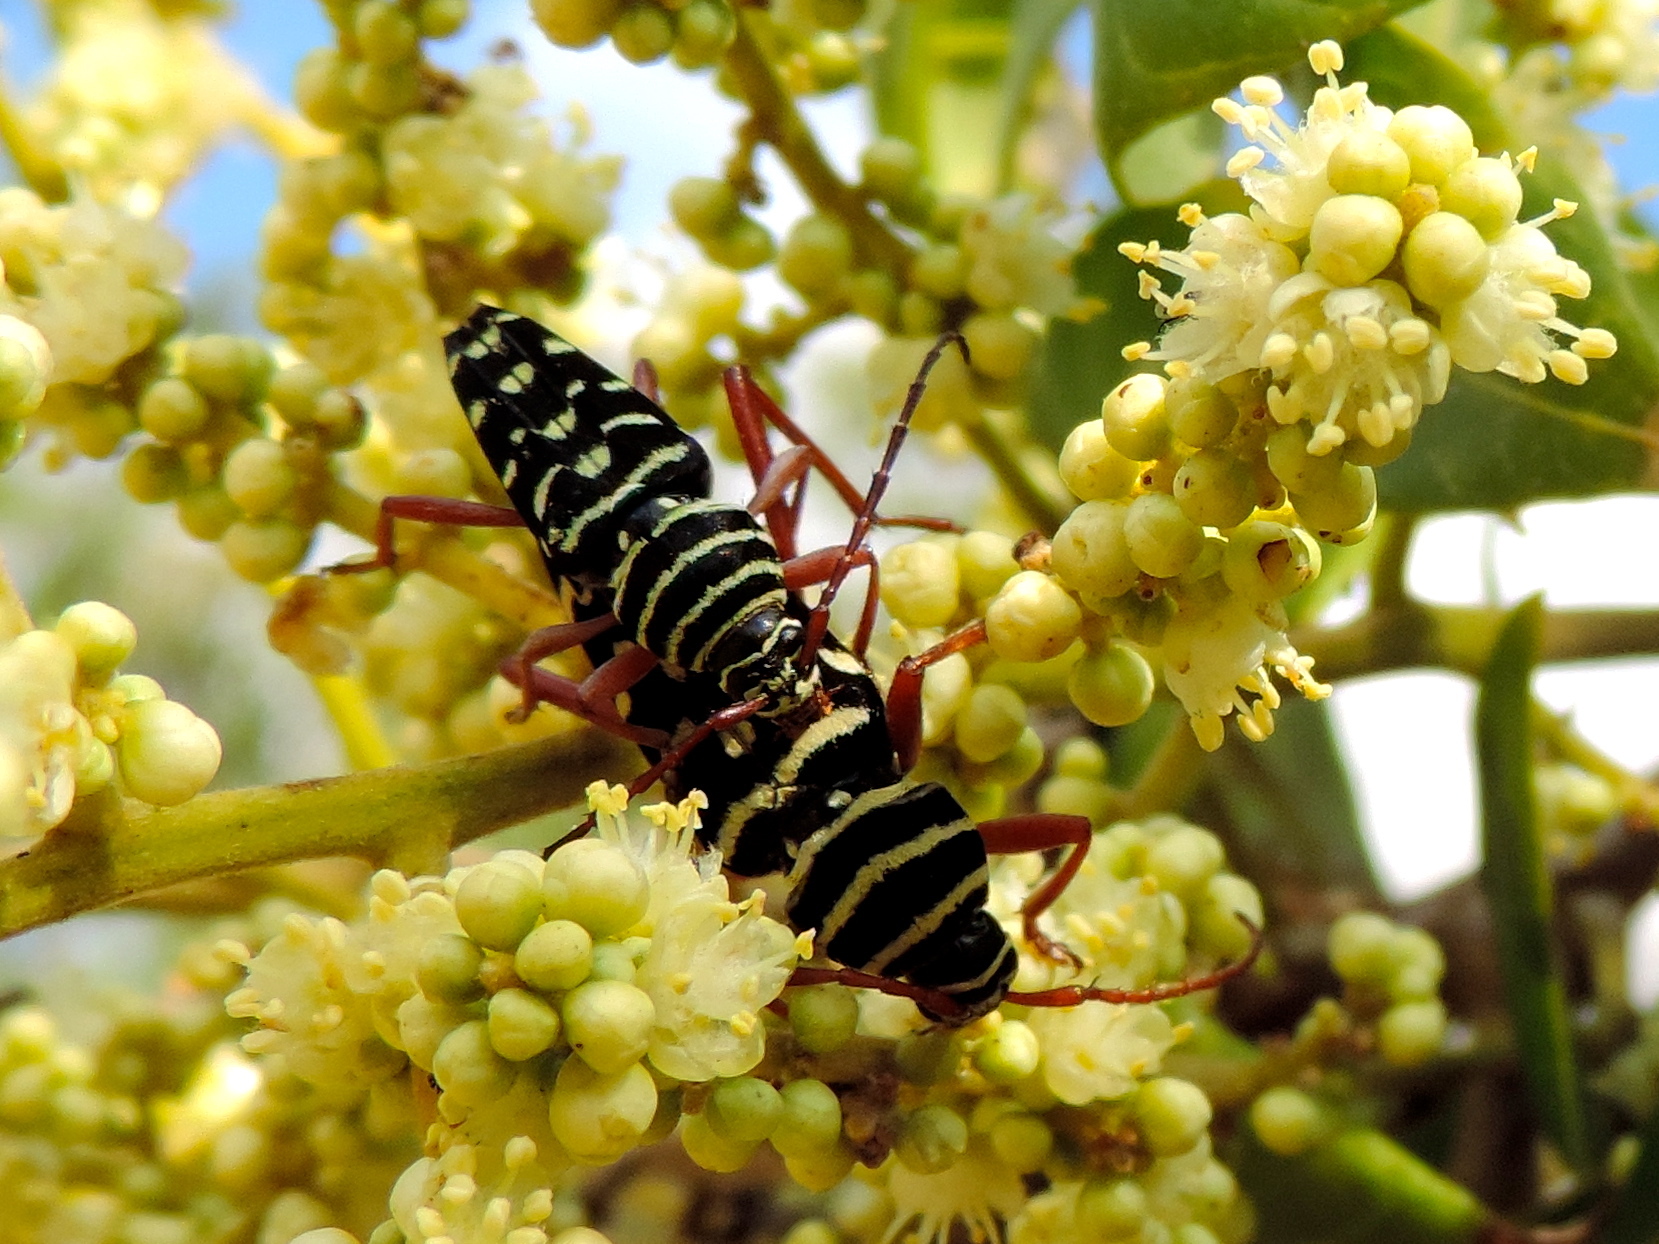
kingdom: Animalia
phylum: Arthropoda
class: Insecta
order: Coleoptera
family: Cerambycidae
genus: Placosternus
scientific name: Placosternus
